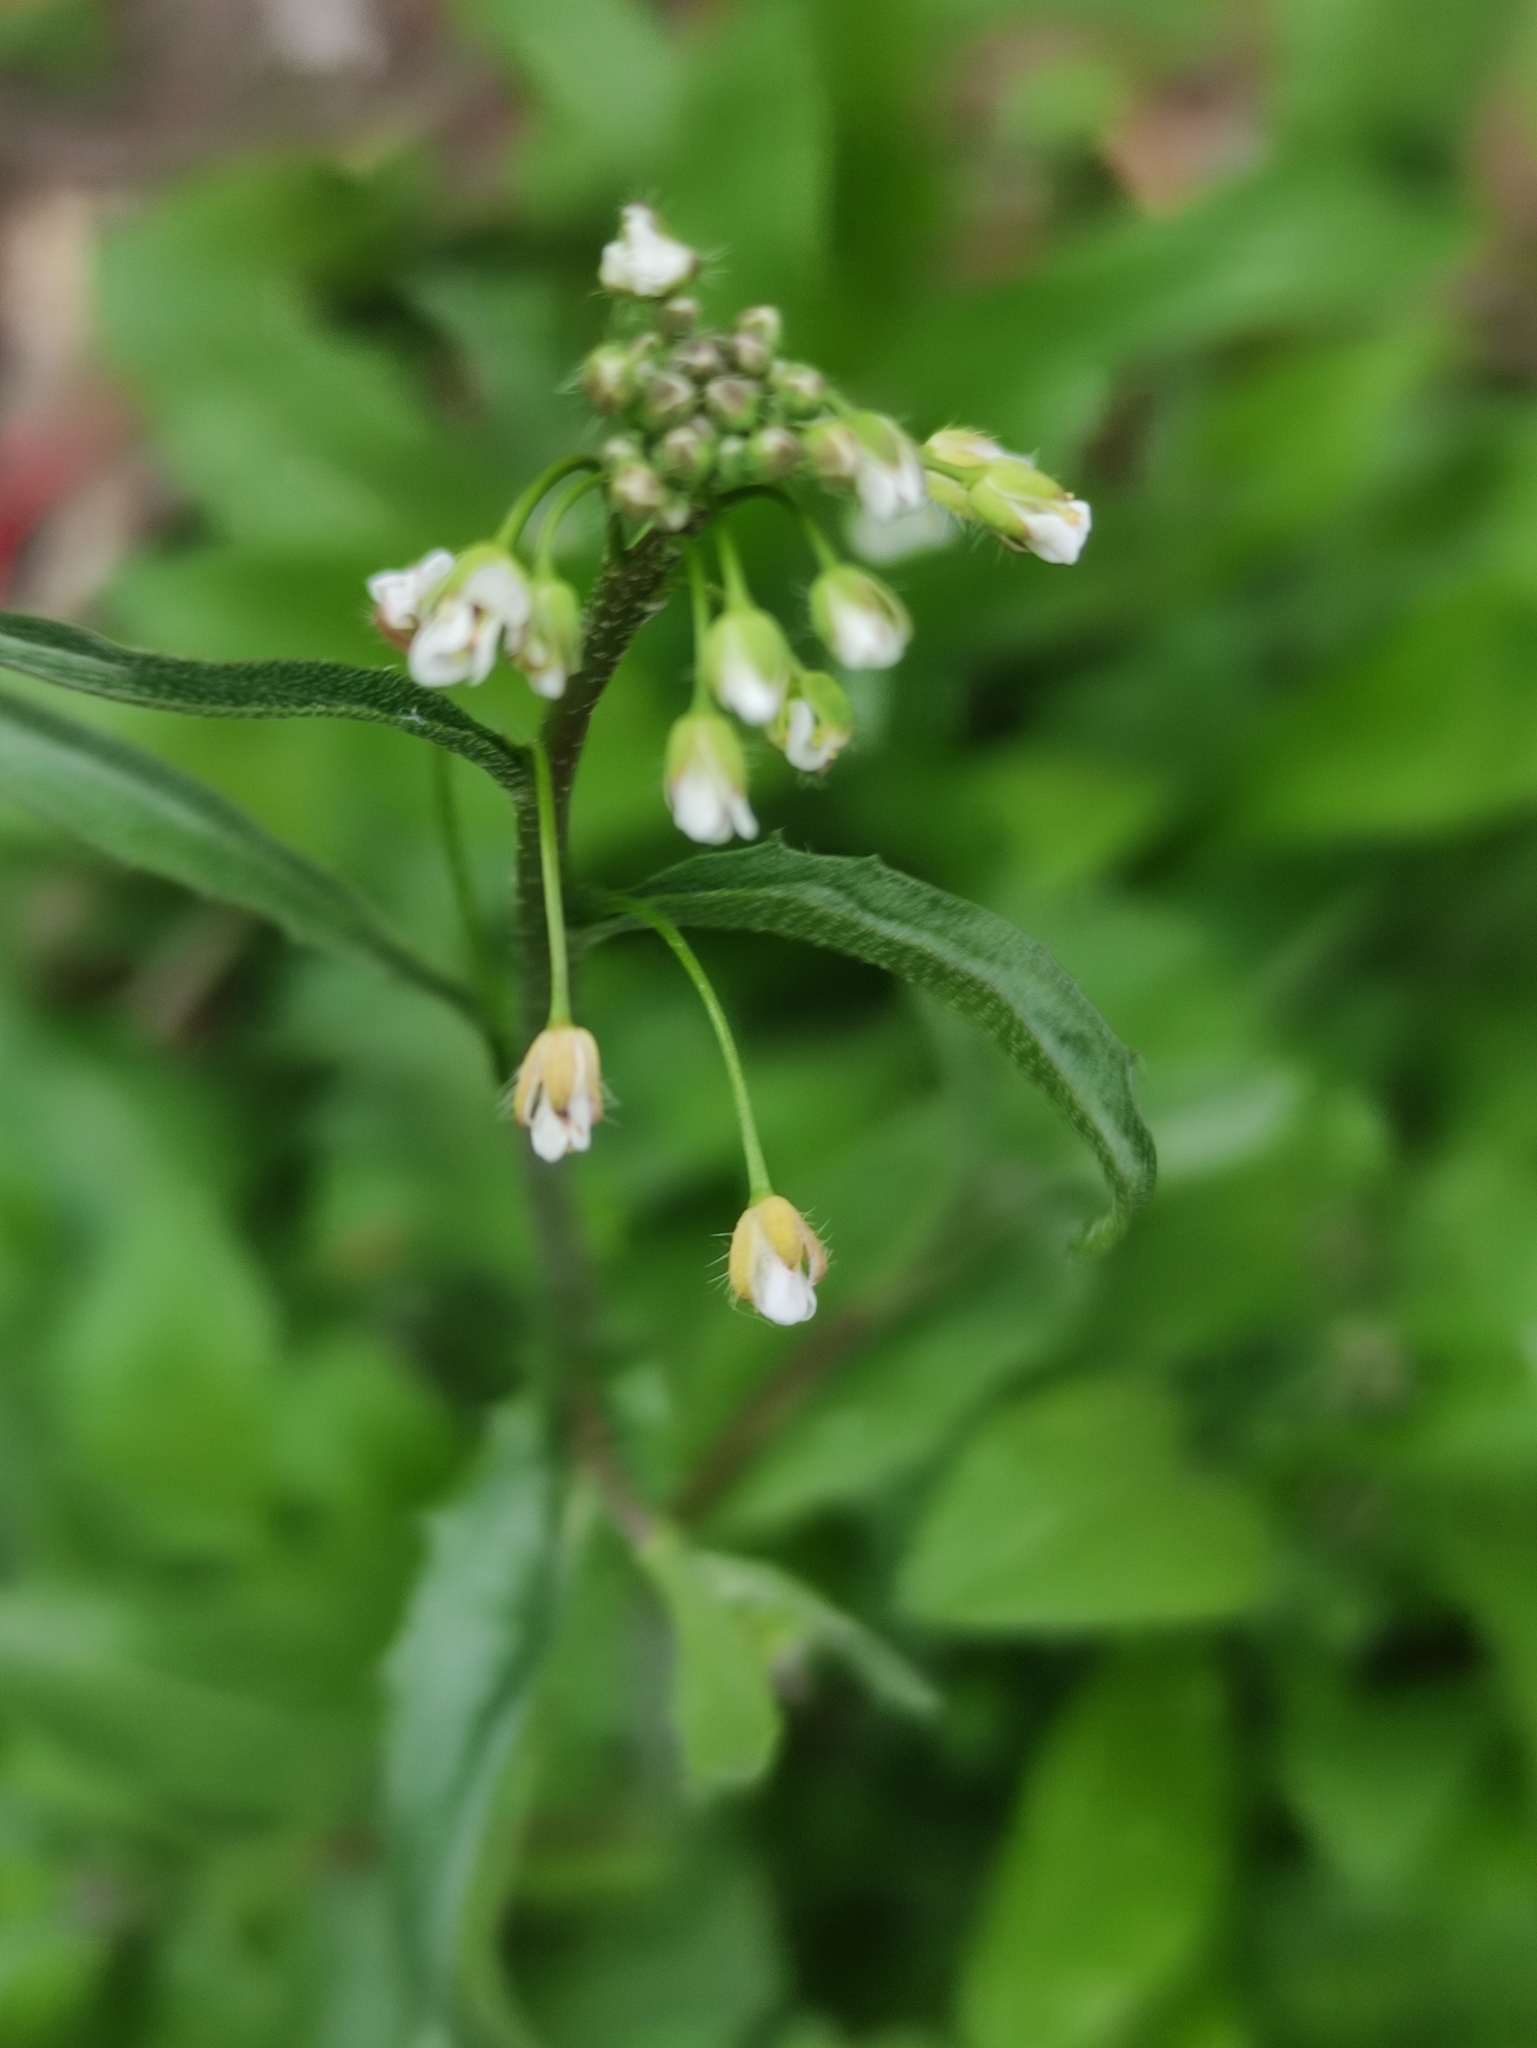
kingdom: Plantae
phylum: Tracheophyta
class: Magnoliopsida
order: Brassicales
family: Brassicaceae
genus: Capsella
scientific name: Capsella bursa-pastoris
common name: Shepherd's purse
